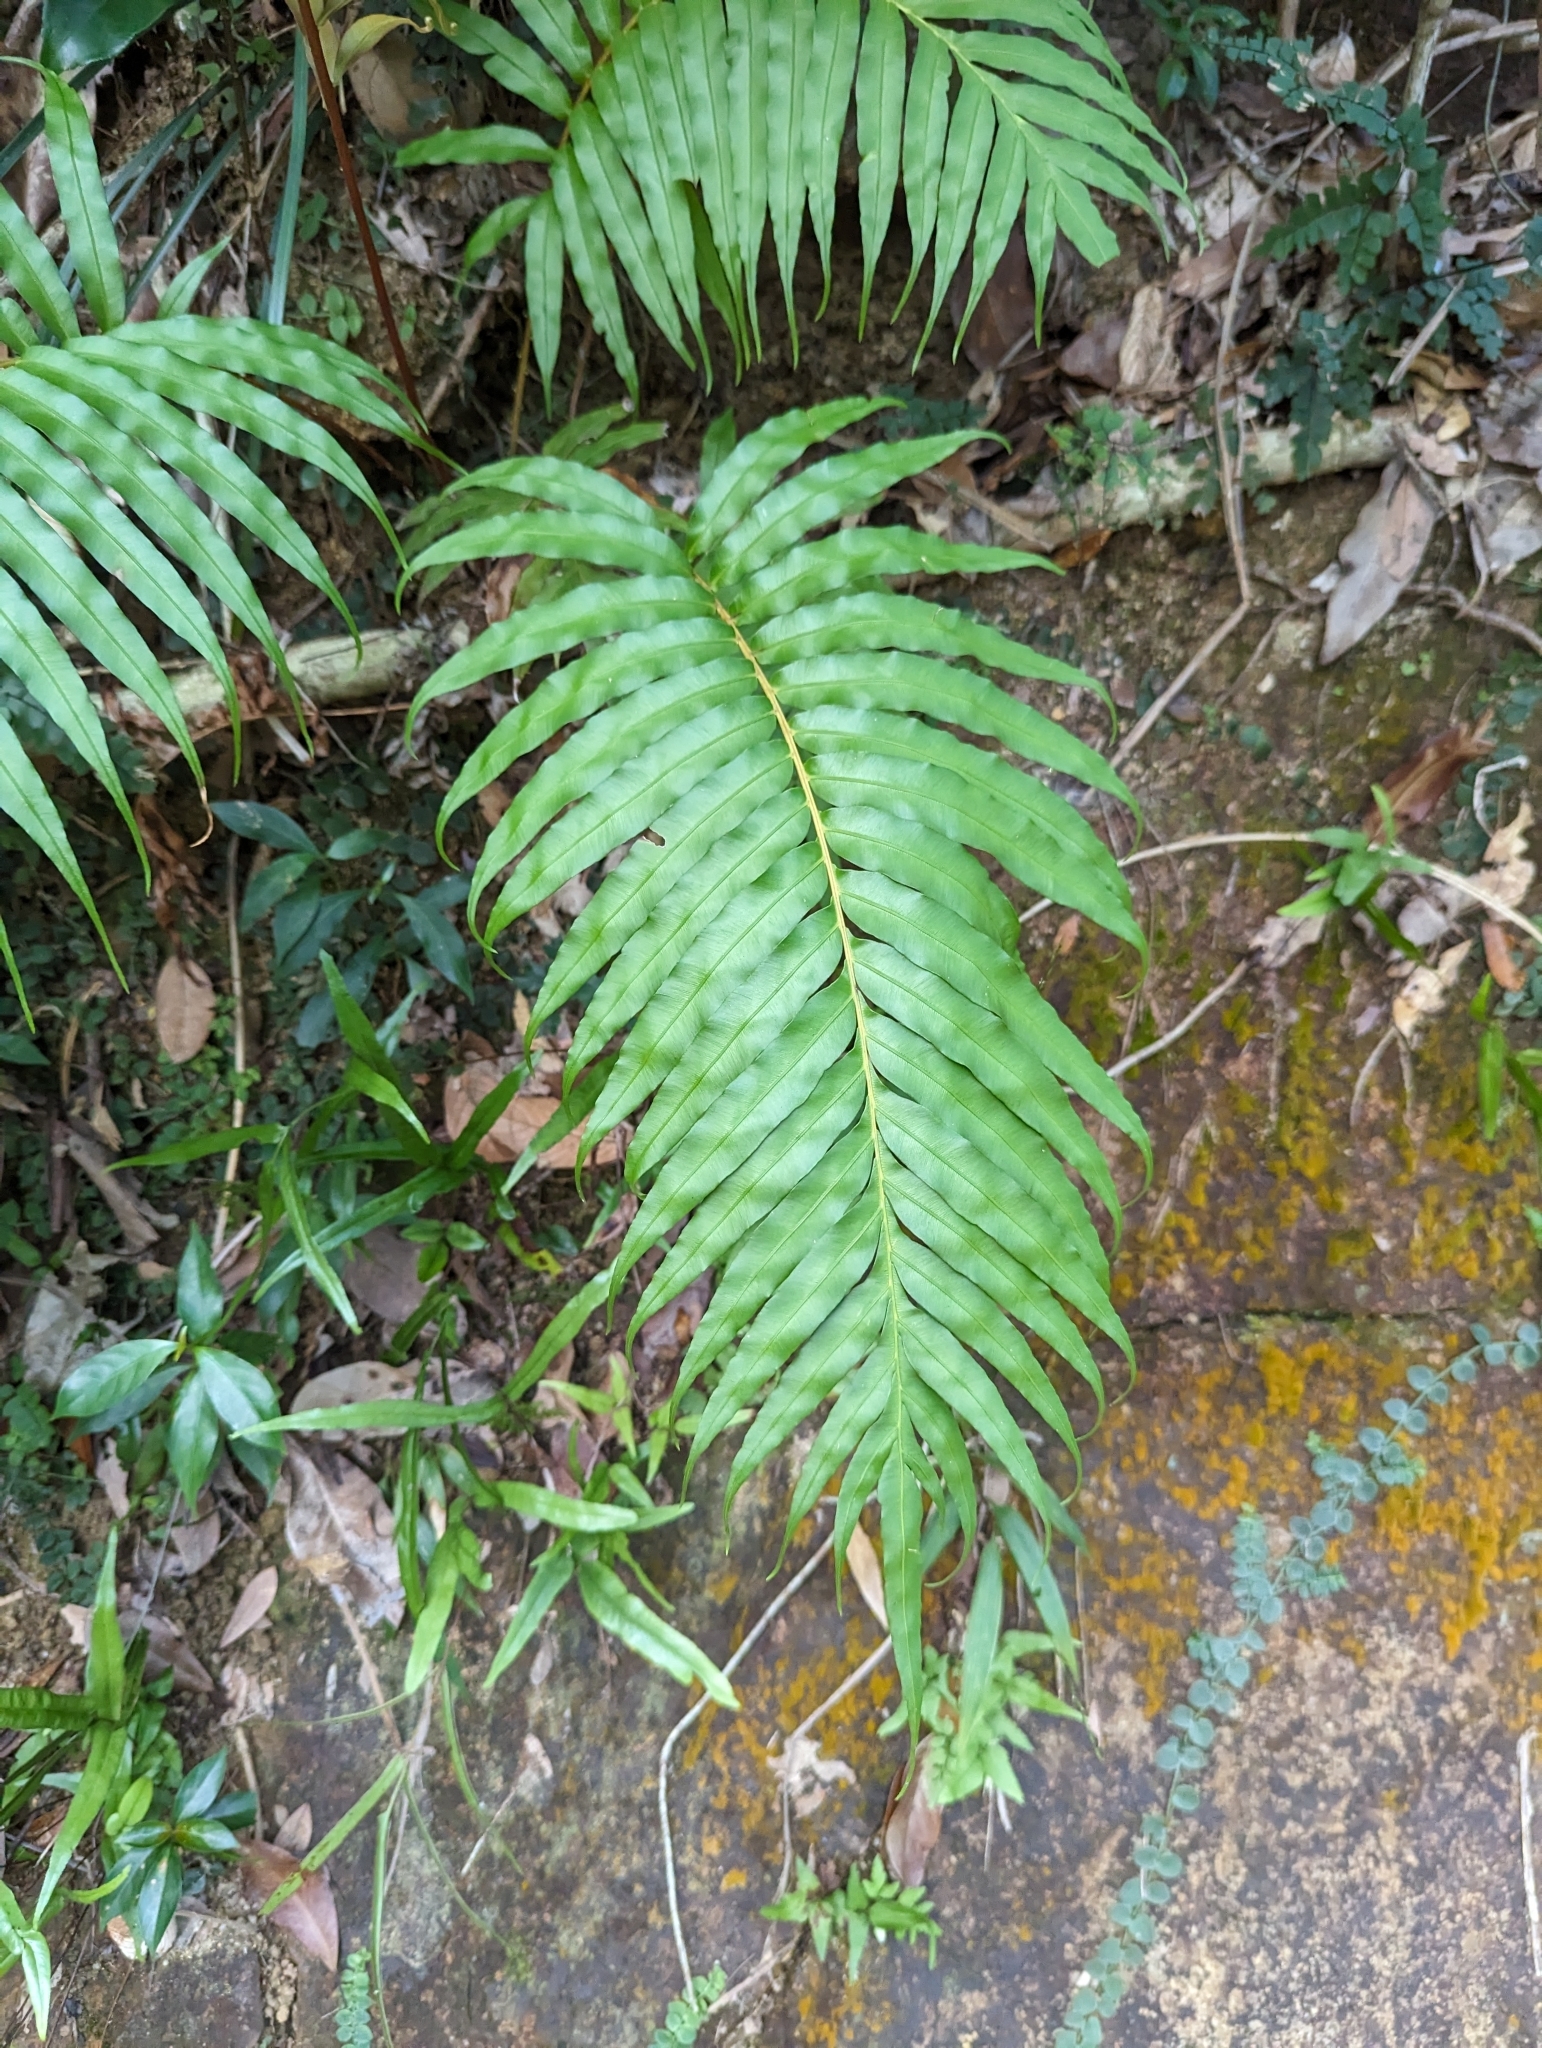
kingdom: Plantae
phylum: Tracheophyta
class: Polypodiopsida
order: Polypodiales
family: Blechnaceae
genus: Blechnopsis
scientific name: Blechnopsis orientalis
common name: Oriental blechnum
